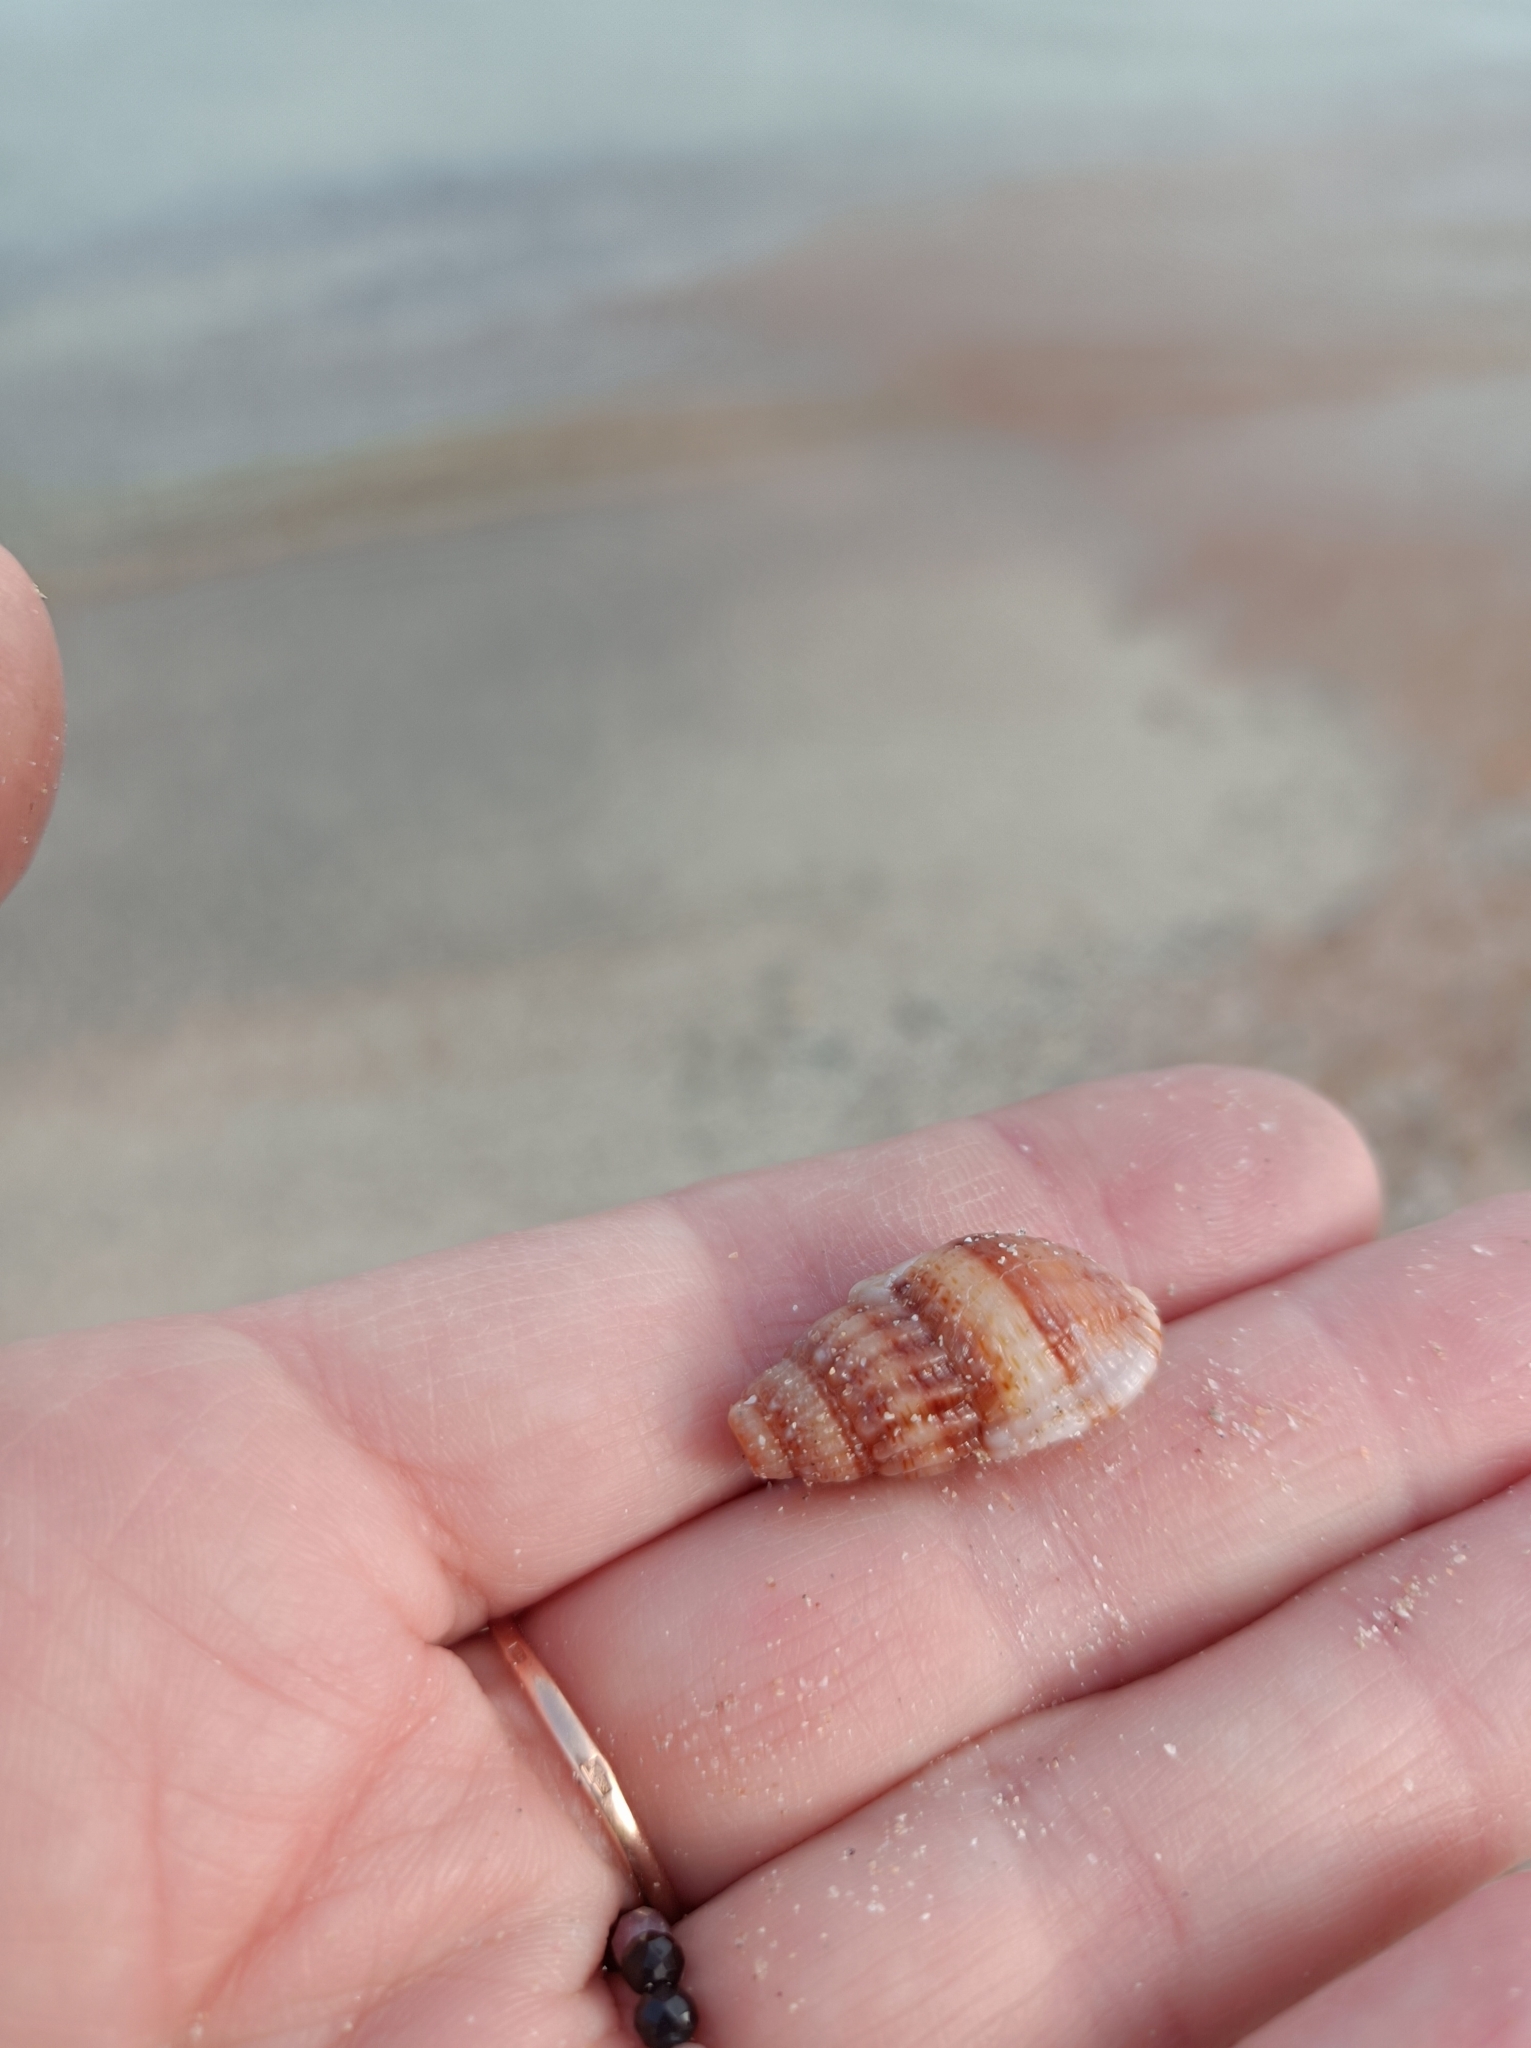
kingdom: Animalia
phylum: Mollusca
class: Gastropoda
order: Neogastropoda
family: Nassariidae
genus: Tritia
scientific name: Tritia nitida
